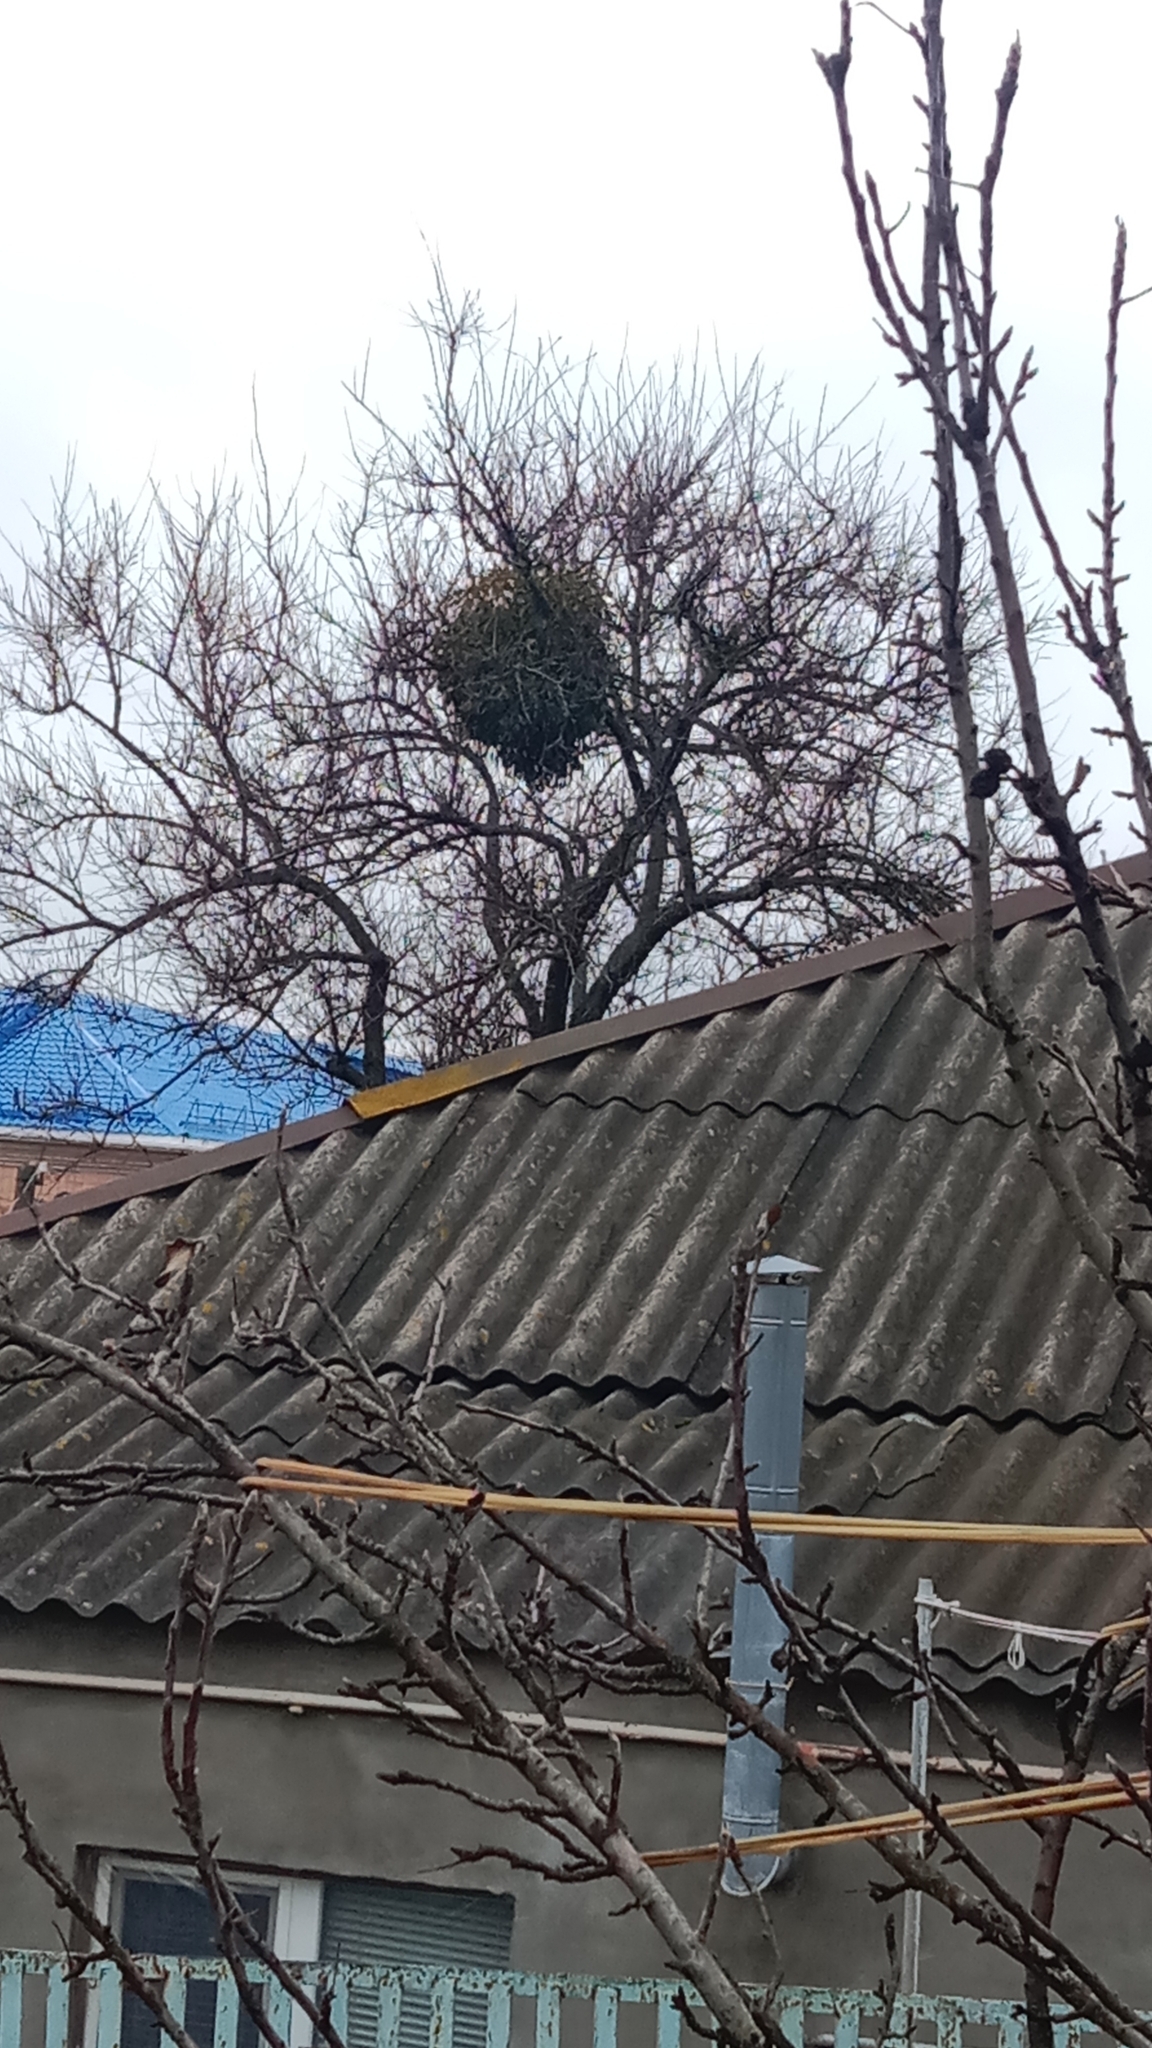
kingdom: Plantae
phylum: Tracheophyta
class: Magnoliopsida
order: Santalales
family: Viscaceae
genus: Viscum
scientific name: Viscum album
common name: Mistletoe
